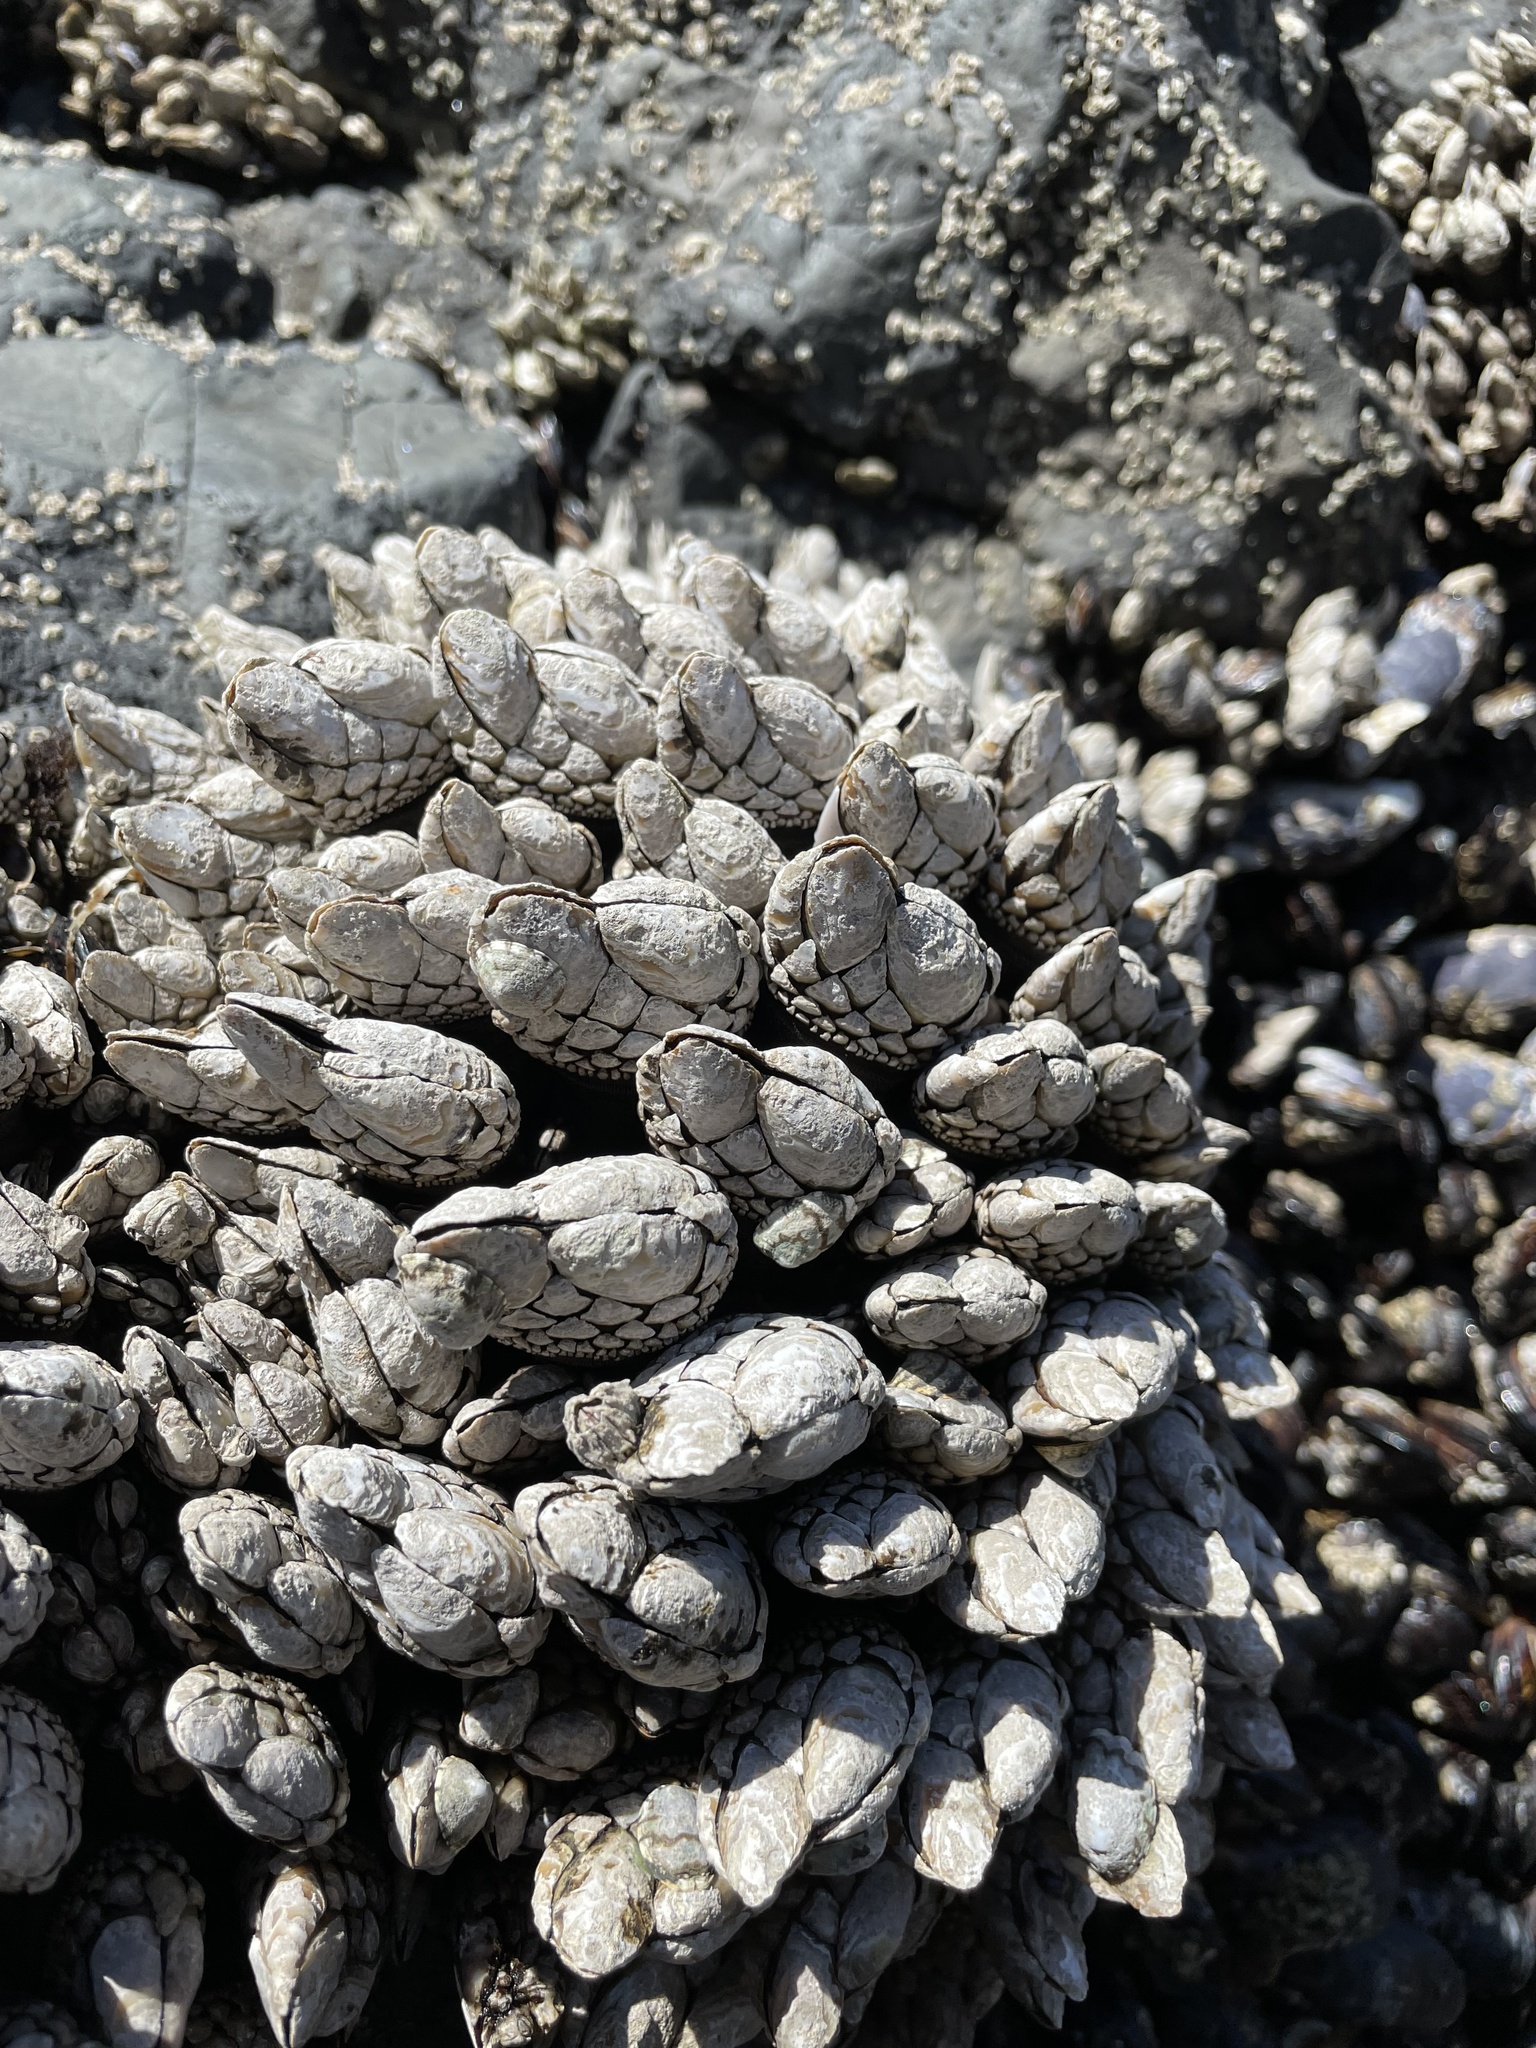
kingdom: Animalia
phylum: Arthropoda
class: Maxillopoda
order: Pedunculata
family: Pollicipedidae
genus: Pollicipes
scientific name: Pollicipes polymerus
